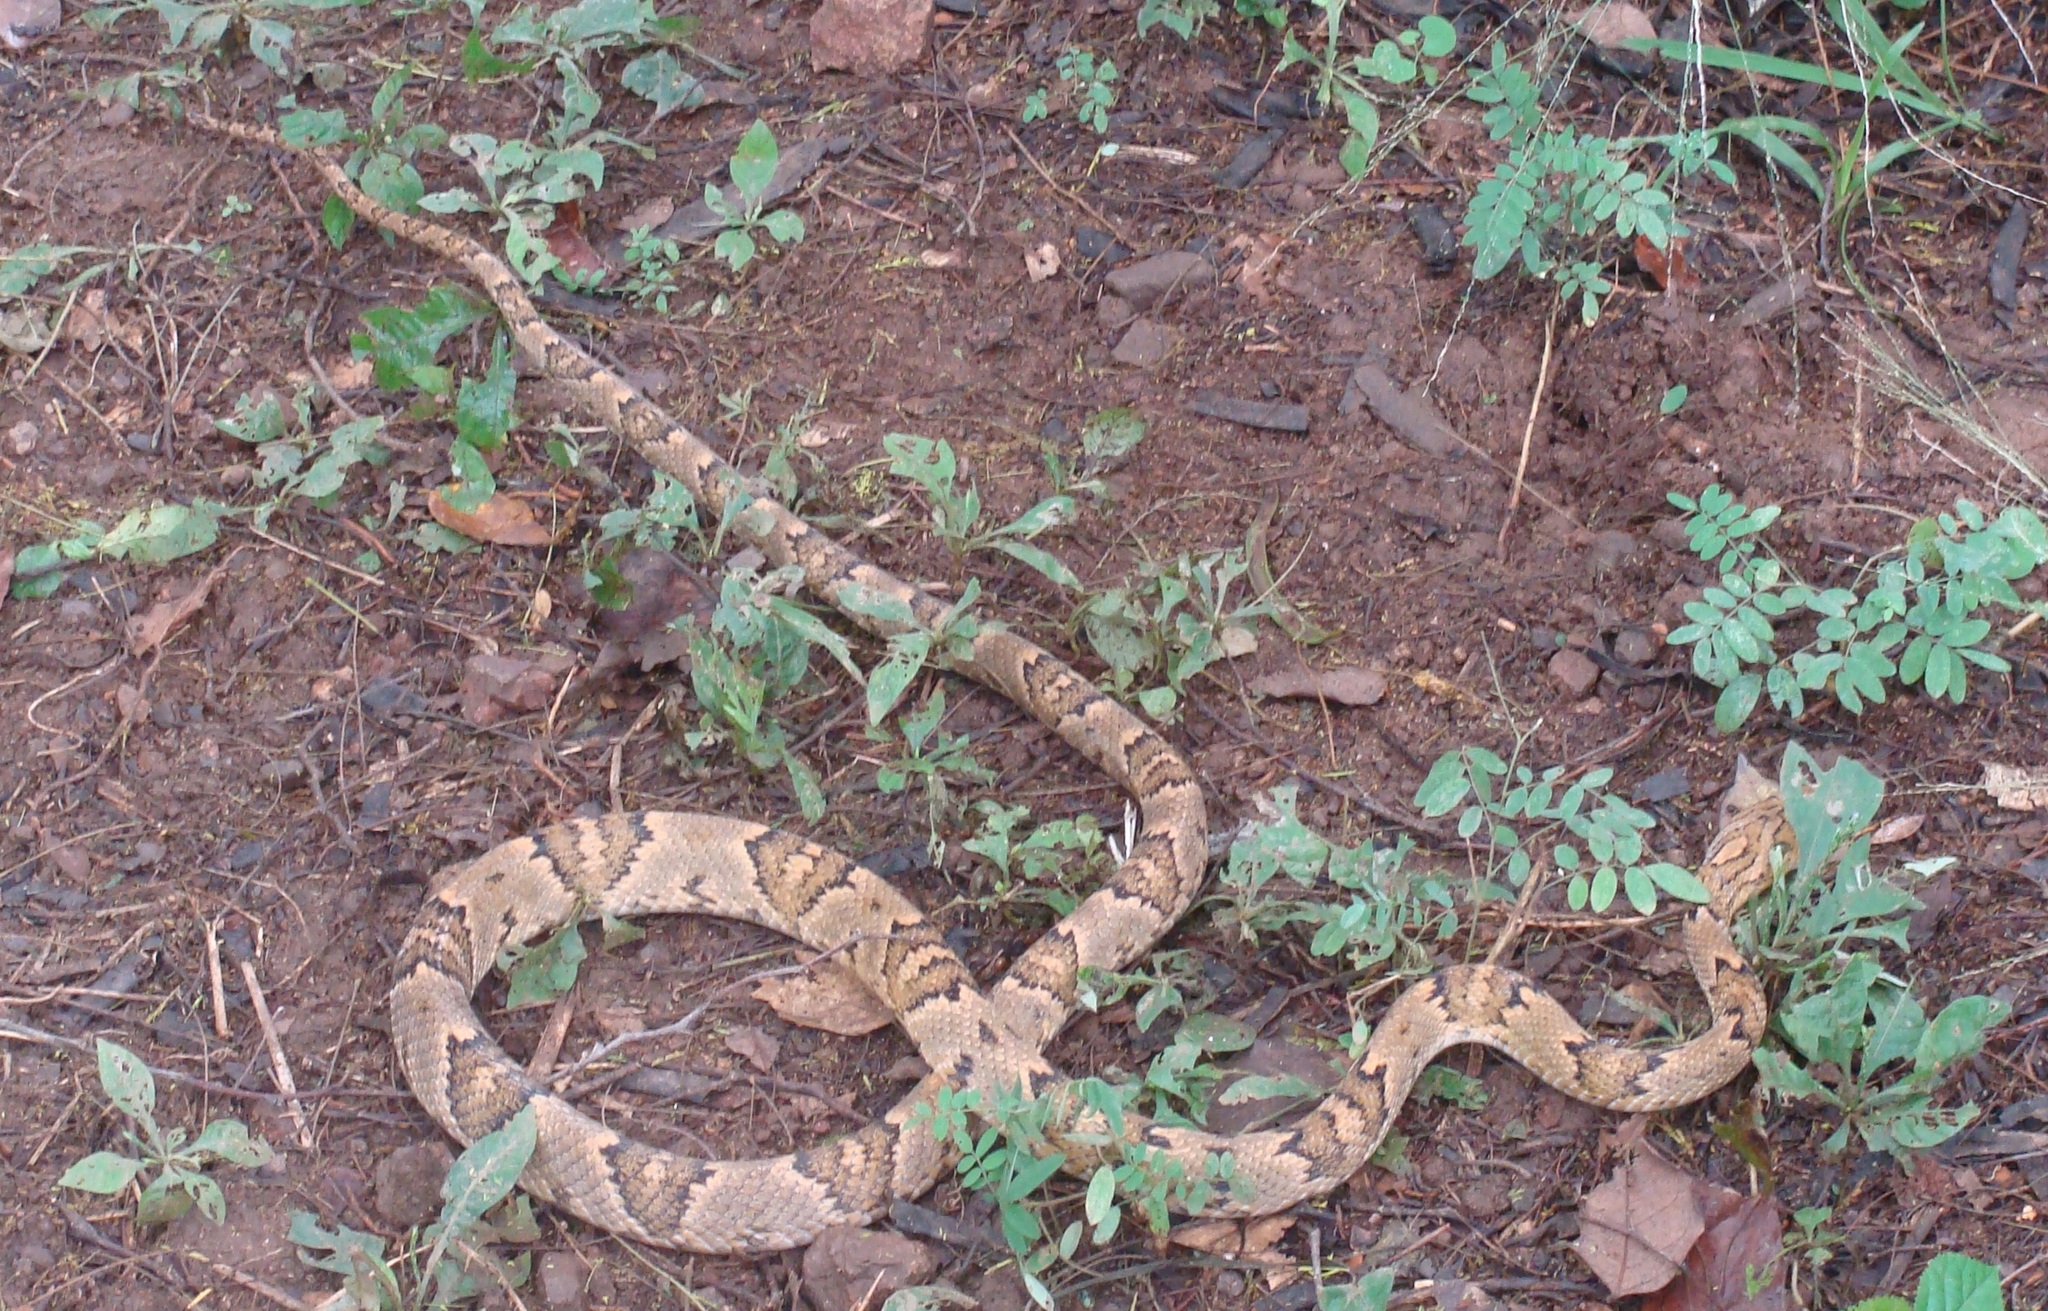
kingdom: Animalia
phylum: Chordata
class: Squamata
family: Colubridae
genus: Trimorphodon
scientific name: Trimorphodon biscutatus
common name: Costal lyre snake
